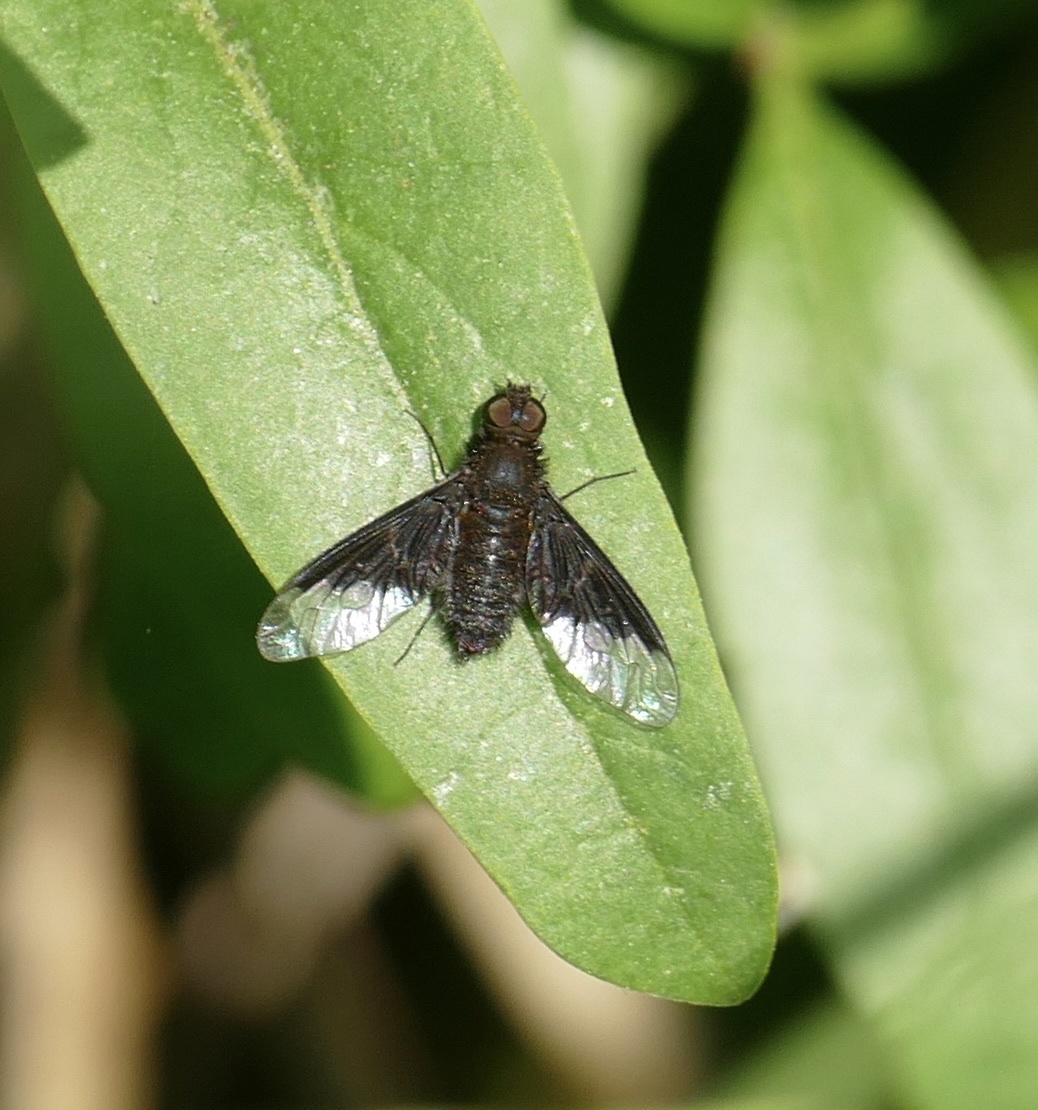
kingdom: Animalia
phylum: Arthropoda
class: Insecta
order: Diptera
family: Bombyliidae
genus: Hemipenthes
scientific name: Hemipenthes morio
